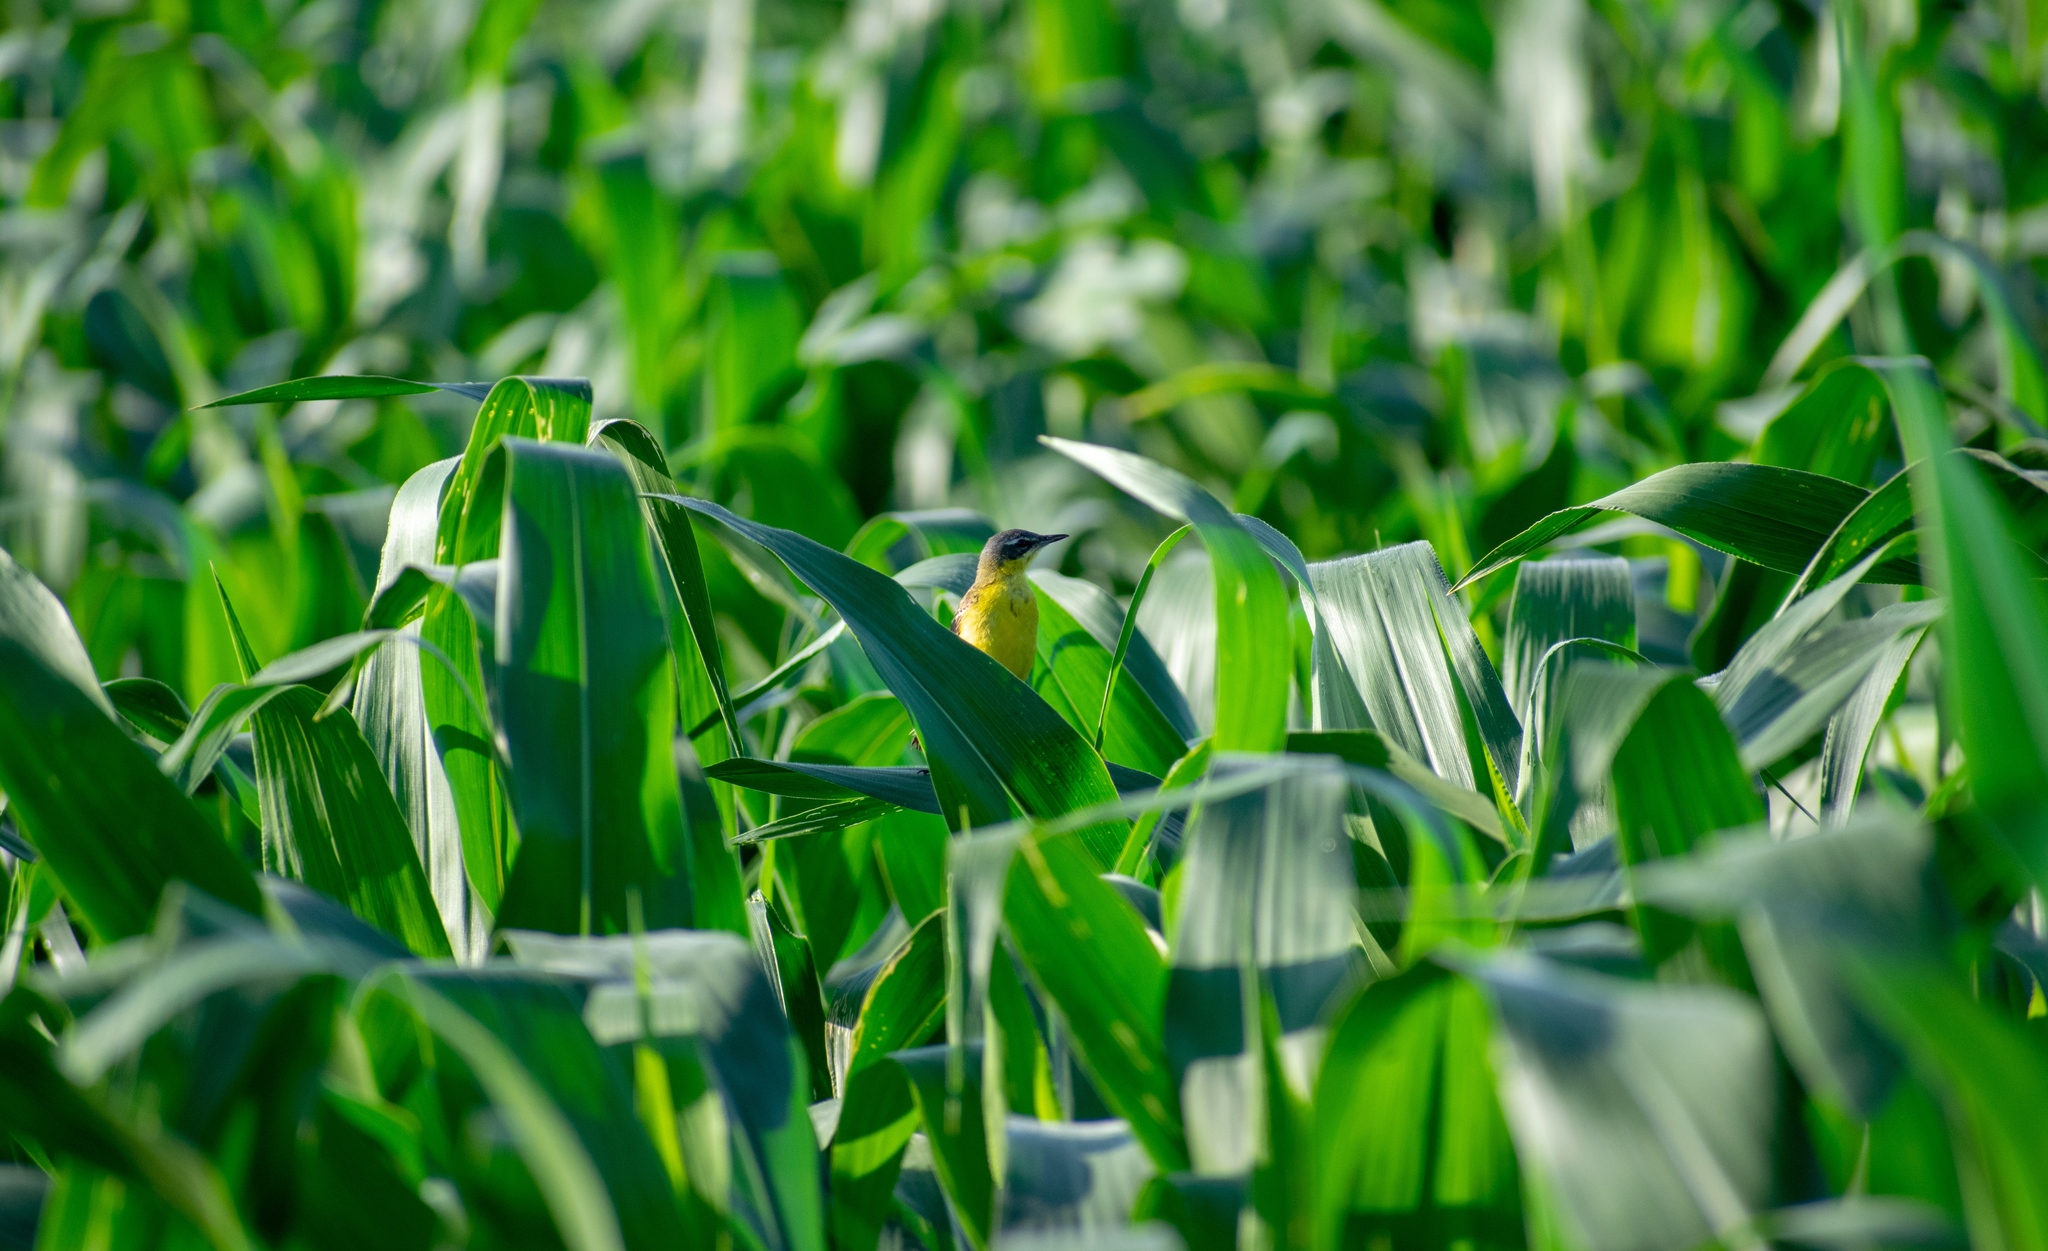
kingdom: Animalia
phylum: Chordata
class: Aves
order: Passeriformes
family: Motacillidae
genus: Motacilla
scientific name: Motacilla flava
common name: Western yellow wagtail
